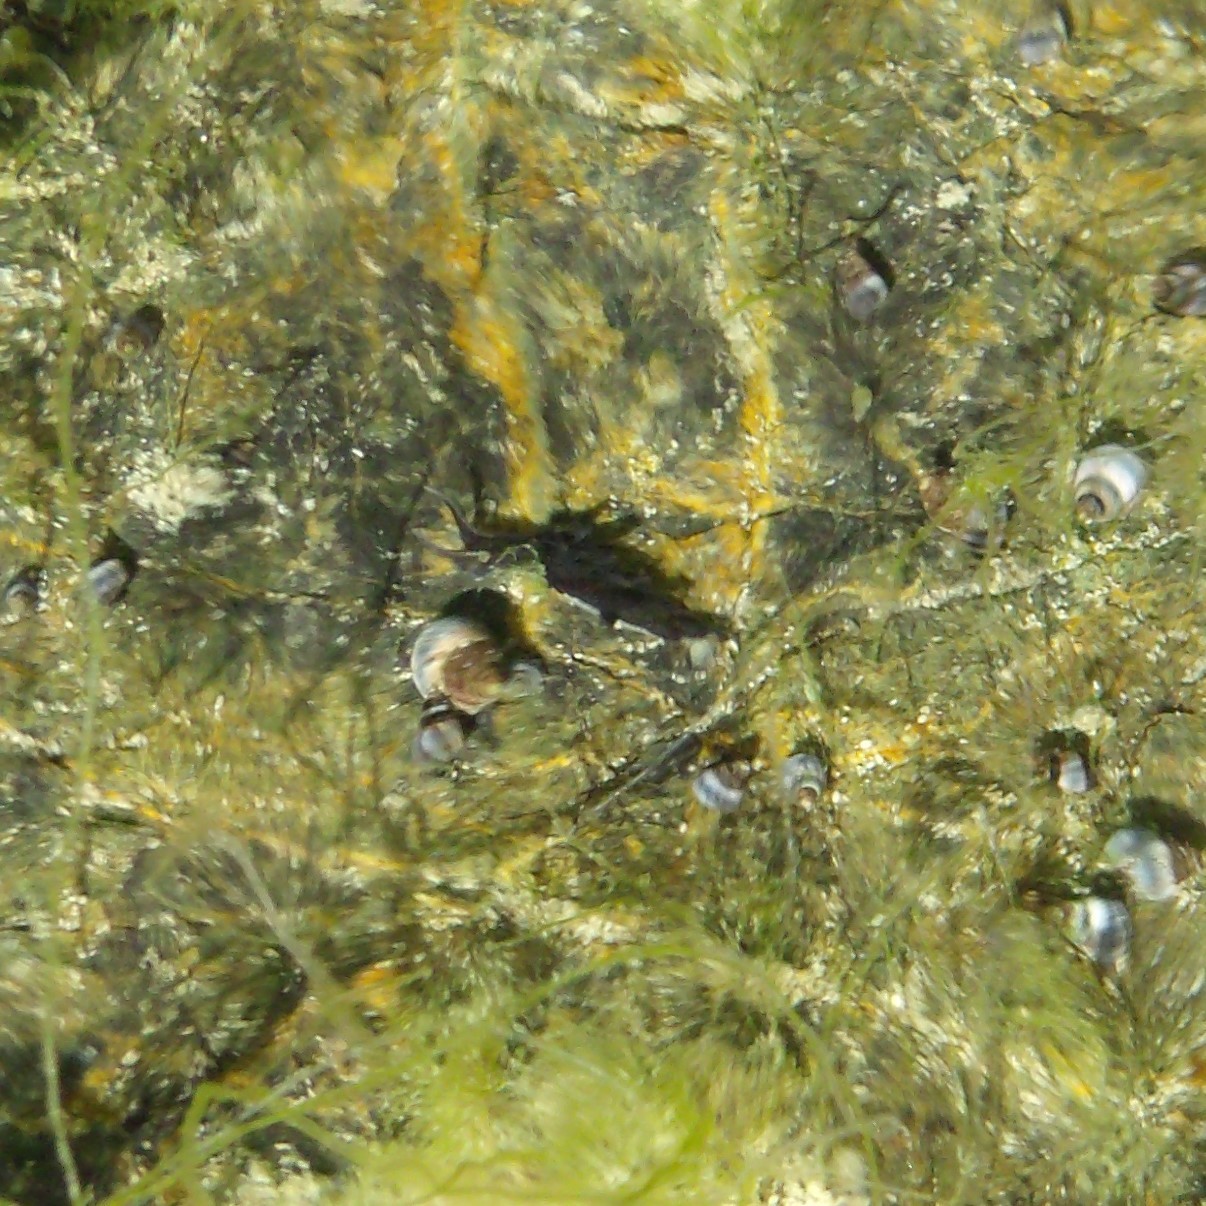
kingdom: Animalia
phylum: Mollusca
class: Gastropoda
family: Limapontiidae
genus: Ercolania
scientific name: Ercolania felina
